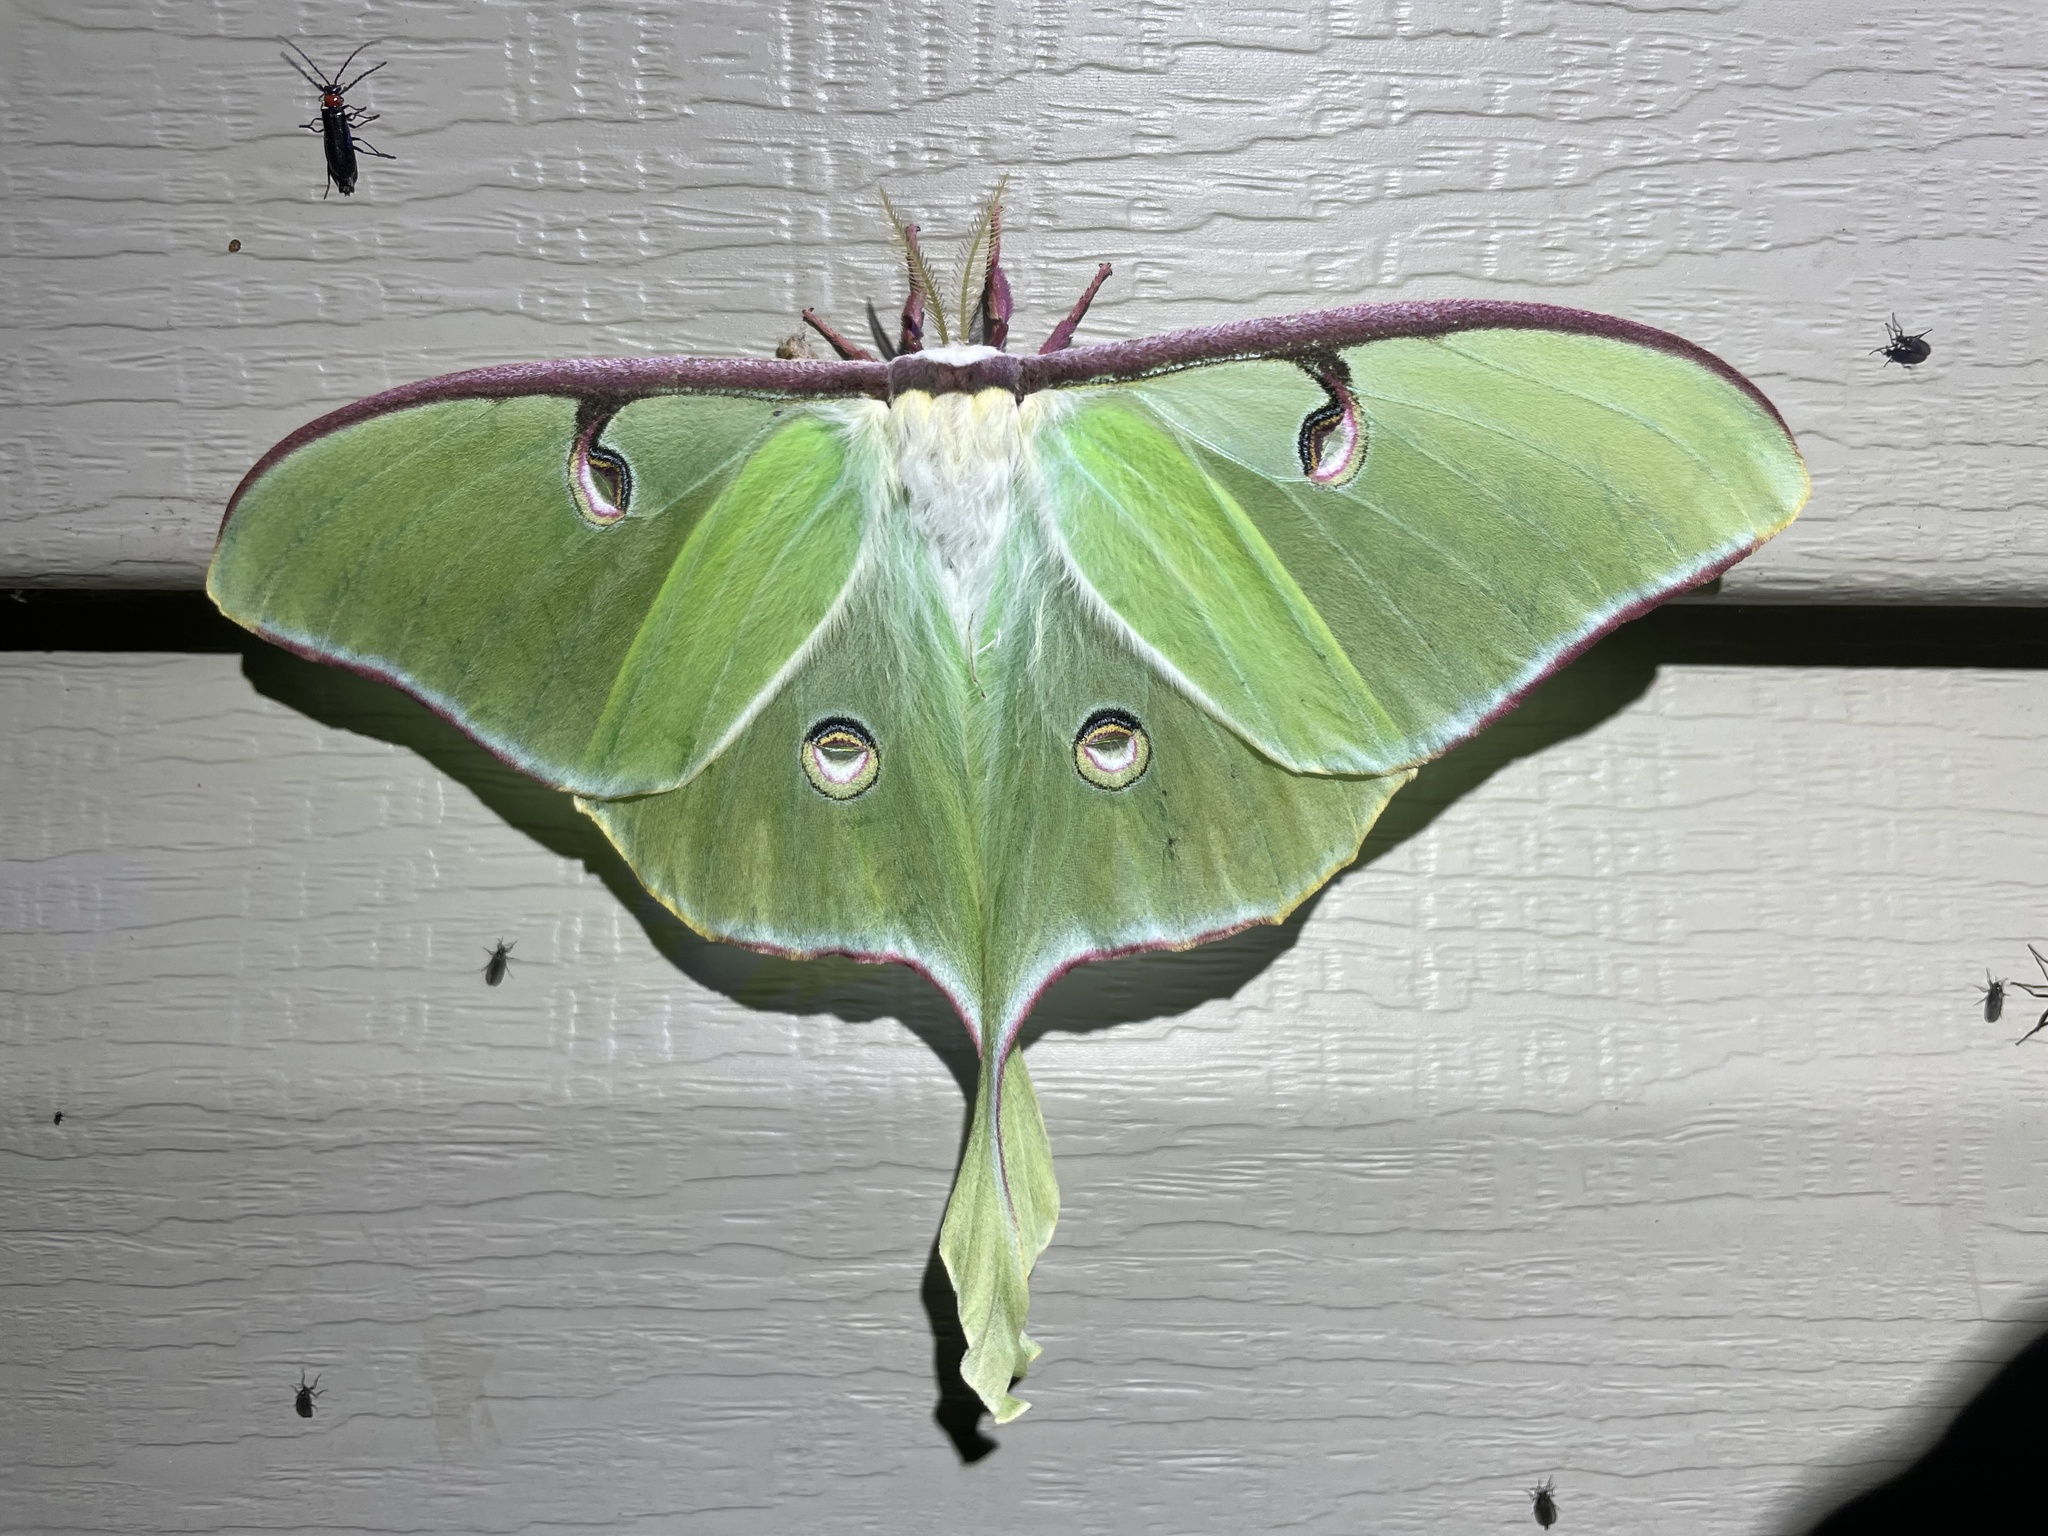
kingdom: Animalia
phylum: Arthropoda
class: Insecta
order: Lepidoptera
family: Saturniidae
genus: Actias
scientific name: Actias luna
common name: Luna moth
